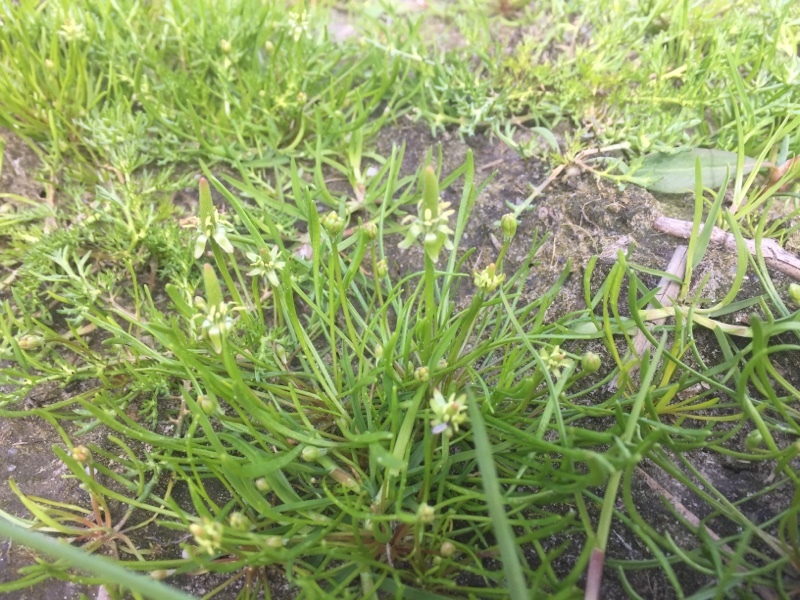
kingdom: Plantae
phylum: Tracheophyta
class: Magnoliopsida
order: Ranunculales
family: Ranunculaceae
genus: Myosurus
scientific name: Myosurus minimus
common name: Mousetail
